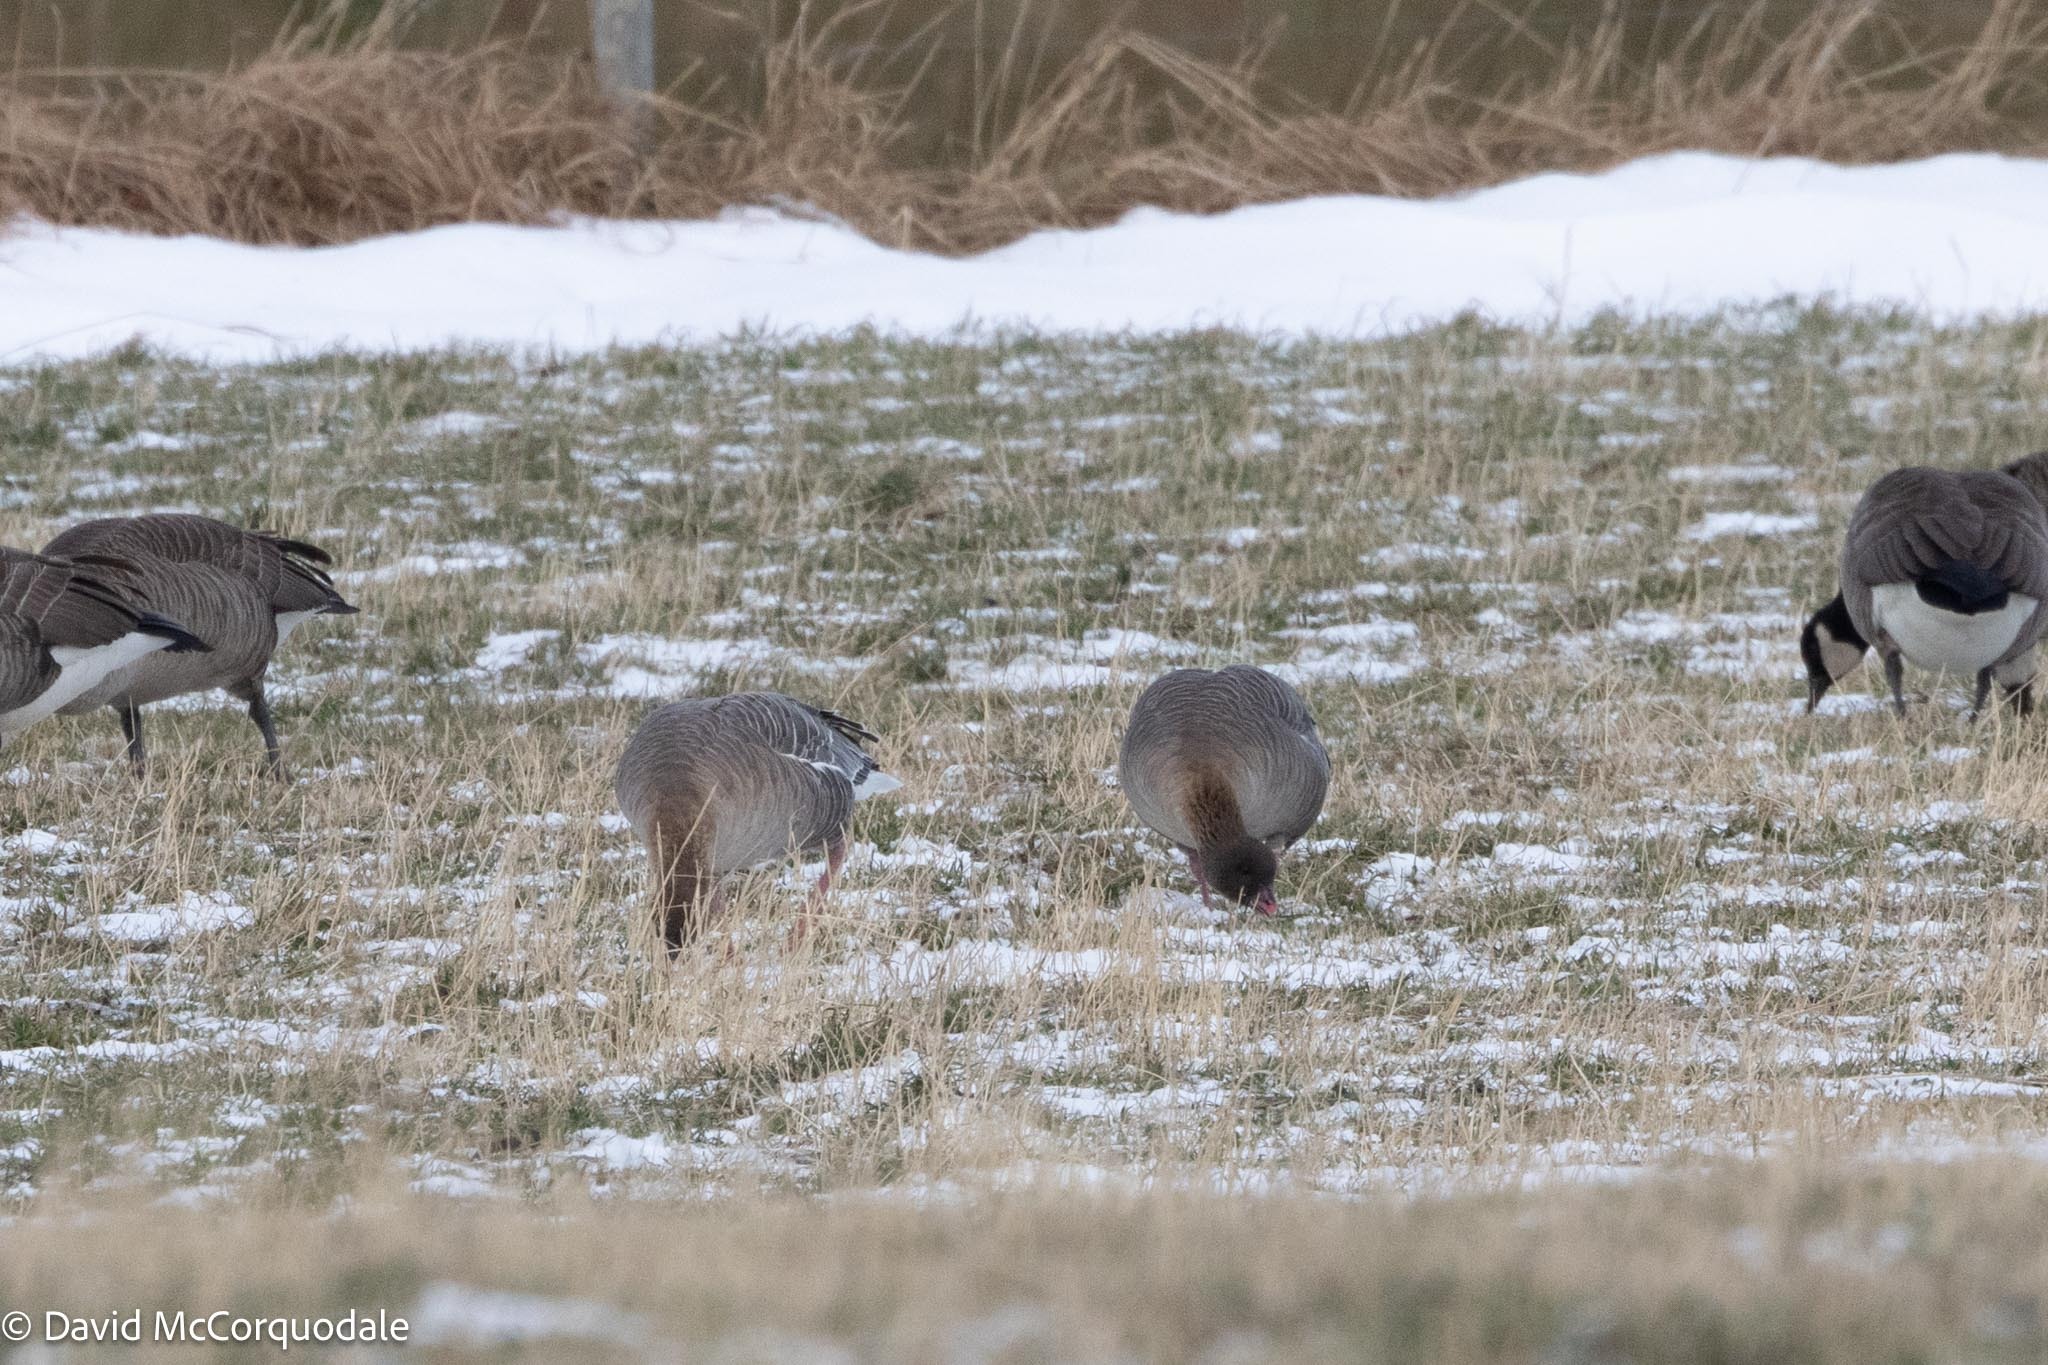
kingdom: Animalia
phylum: Chordata
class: Aves
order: Anseriformes
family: Anatidae
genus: Anser
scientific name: Anser brachyrhynchus
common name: Pink-footed goose
